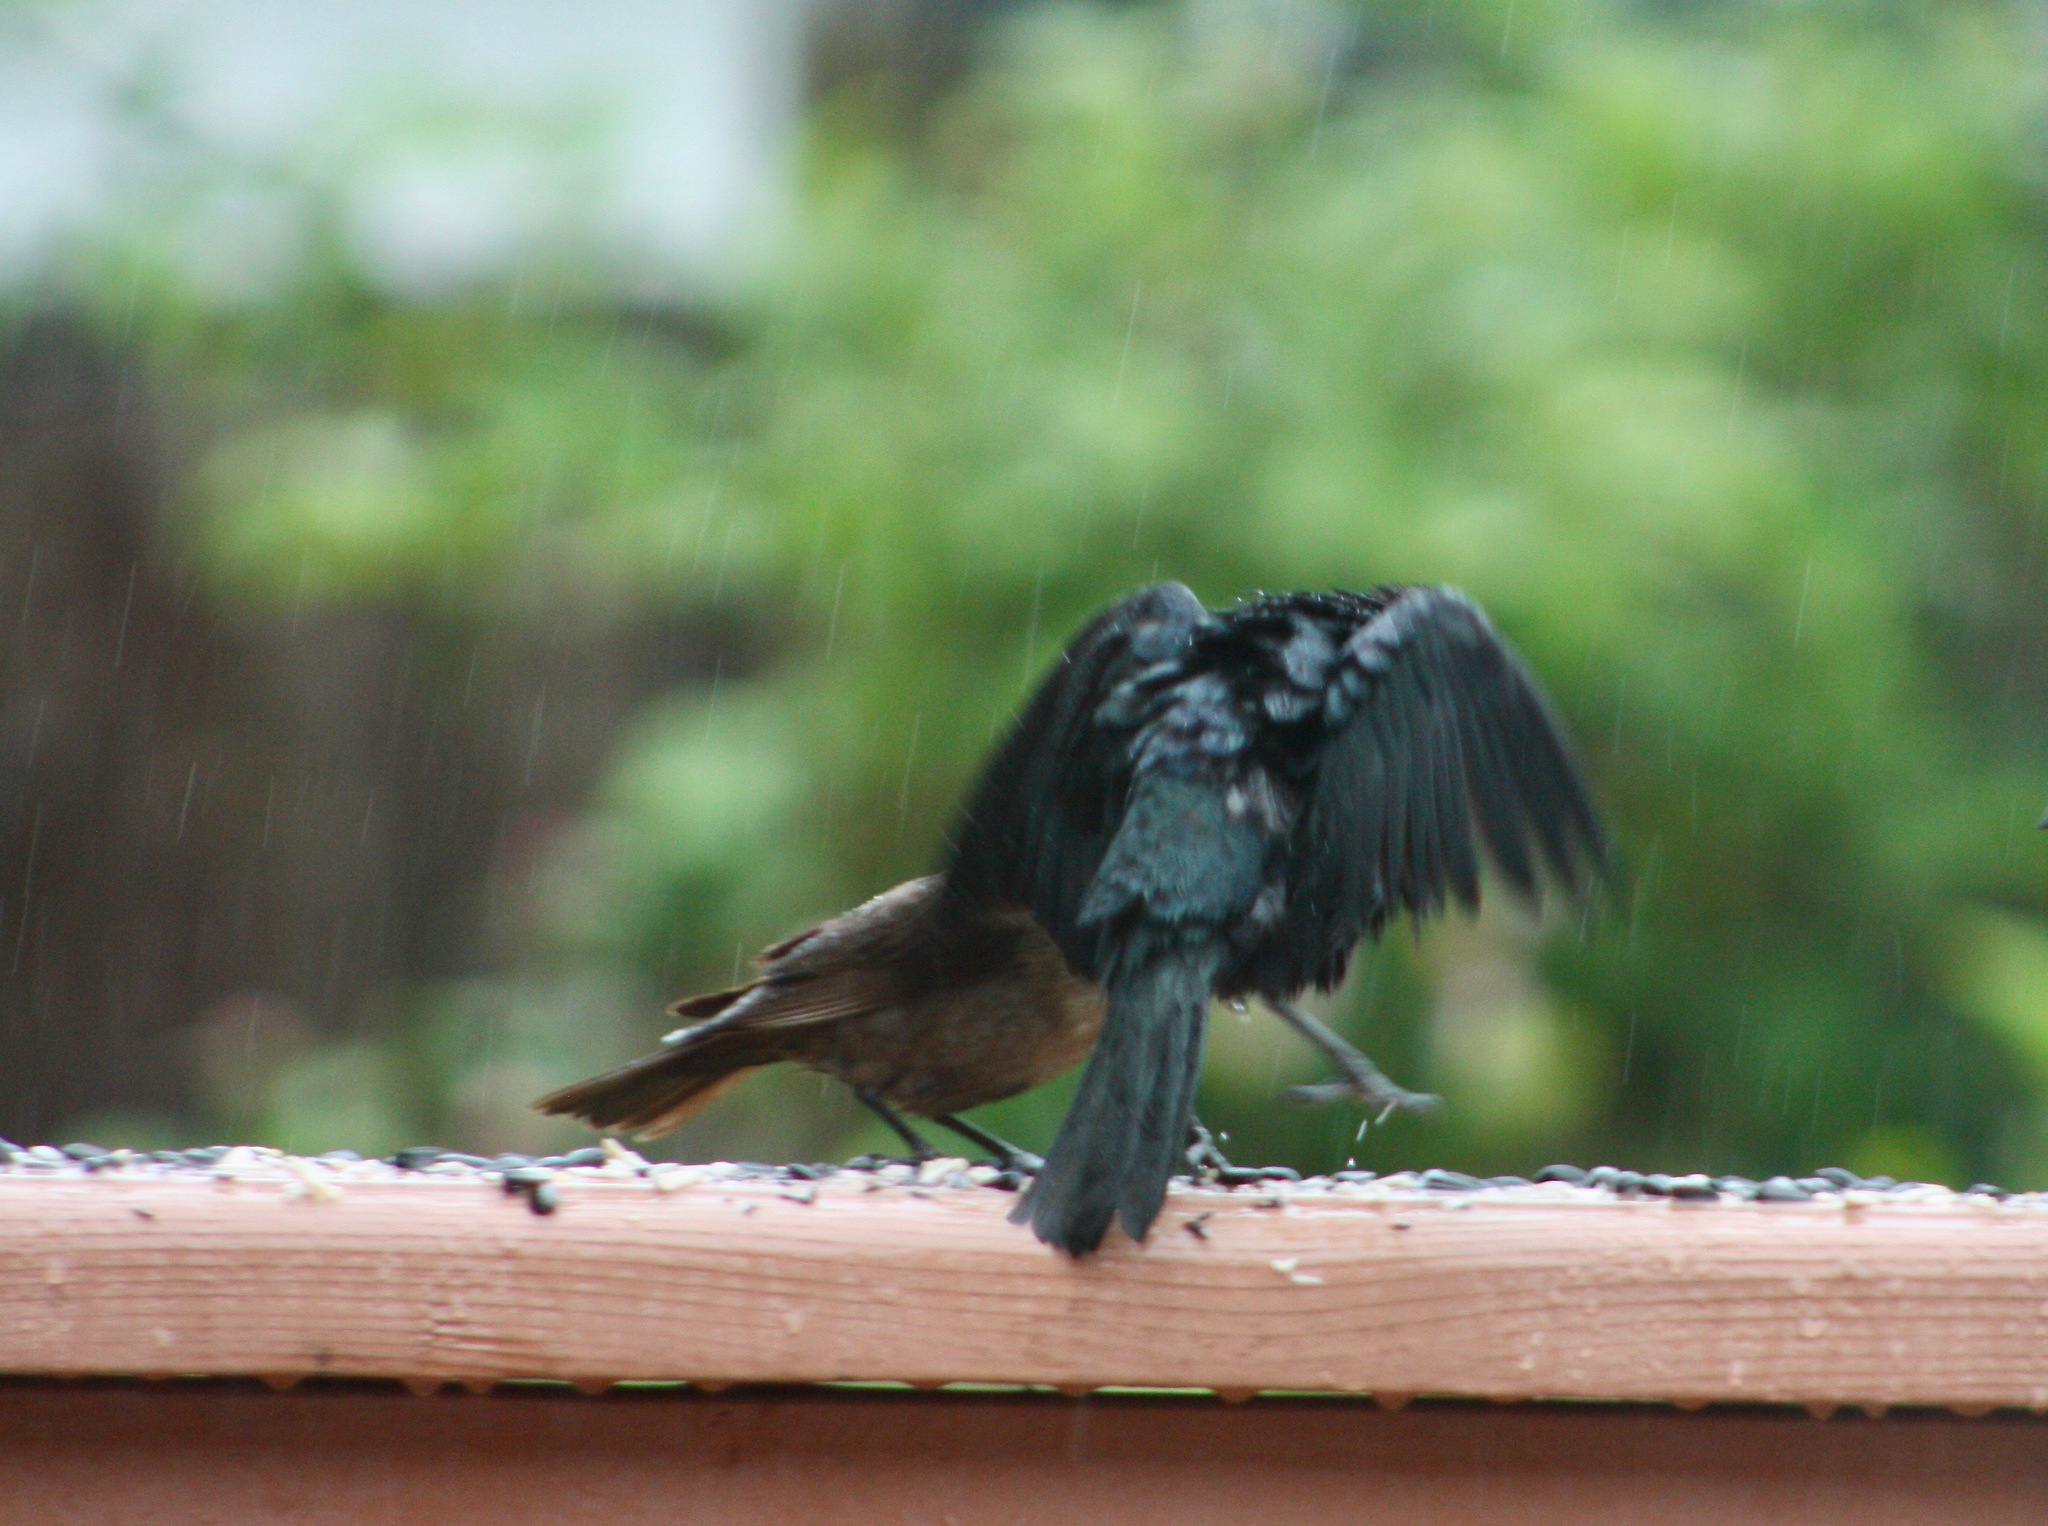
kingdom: Animalia
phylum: Chordata
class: Aves
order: Passeriformes
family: Icteridae
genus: Molothrus
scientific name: Molothrus ater
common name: Brown-headed cowbird
